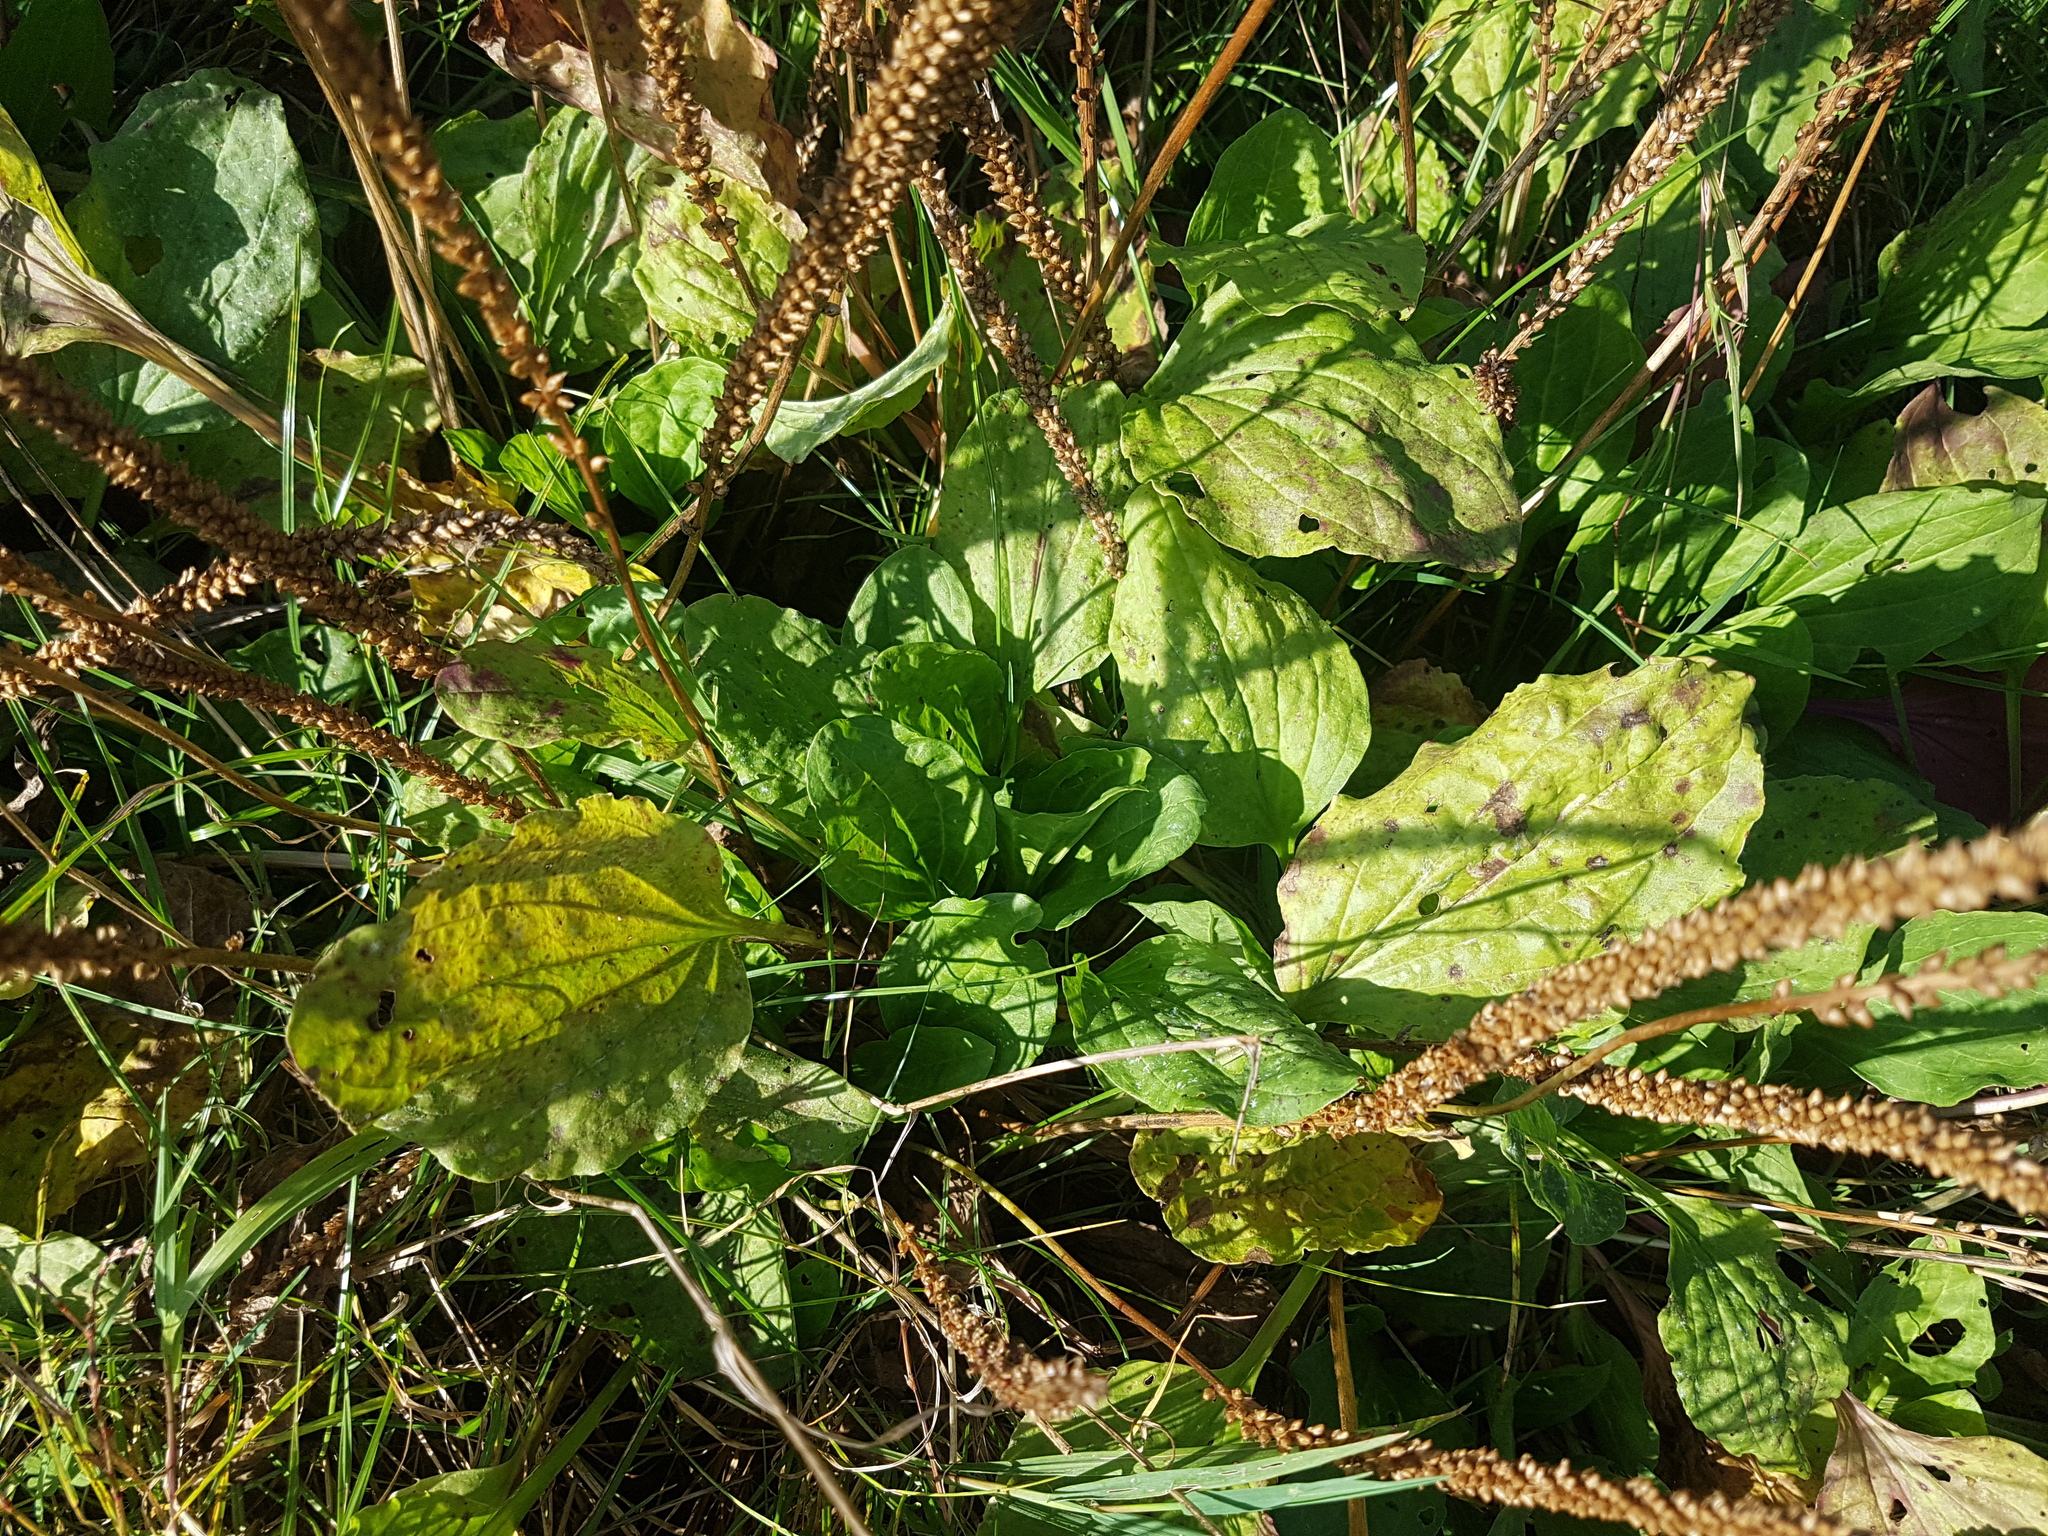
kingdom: Plantae
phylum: Tracheophyta
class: Magnoliopsida
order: Lamiales
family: Plantaginaceae
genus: Plantago
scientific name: Plantago major
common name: Common plantain
